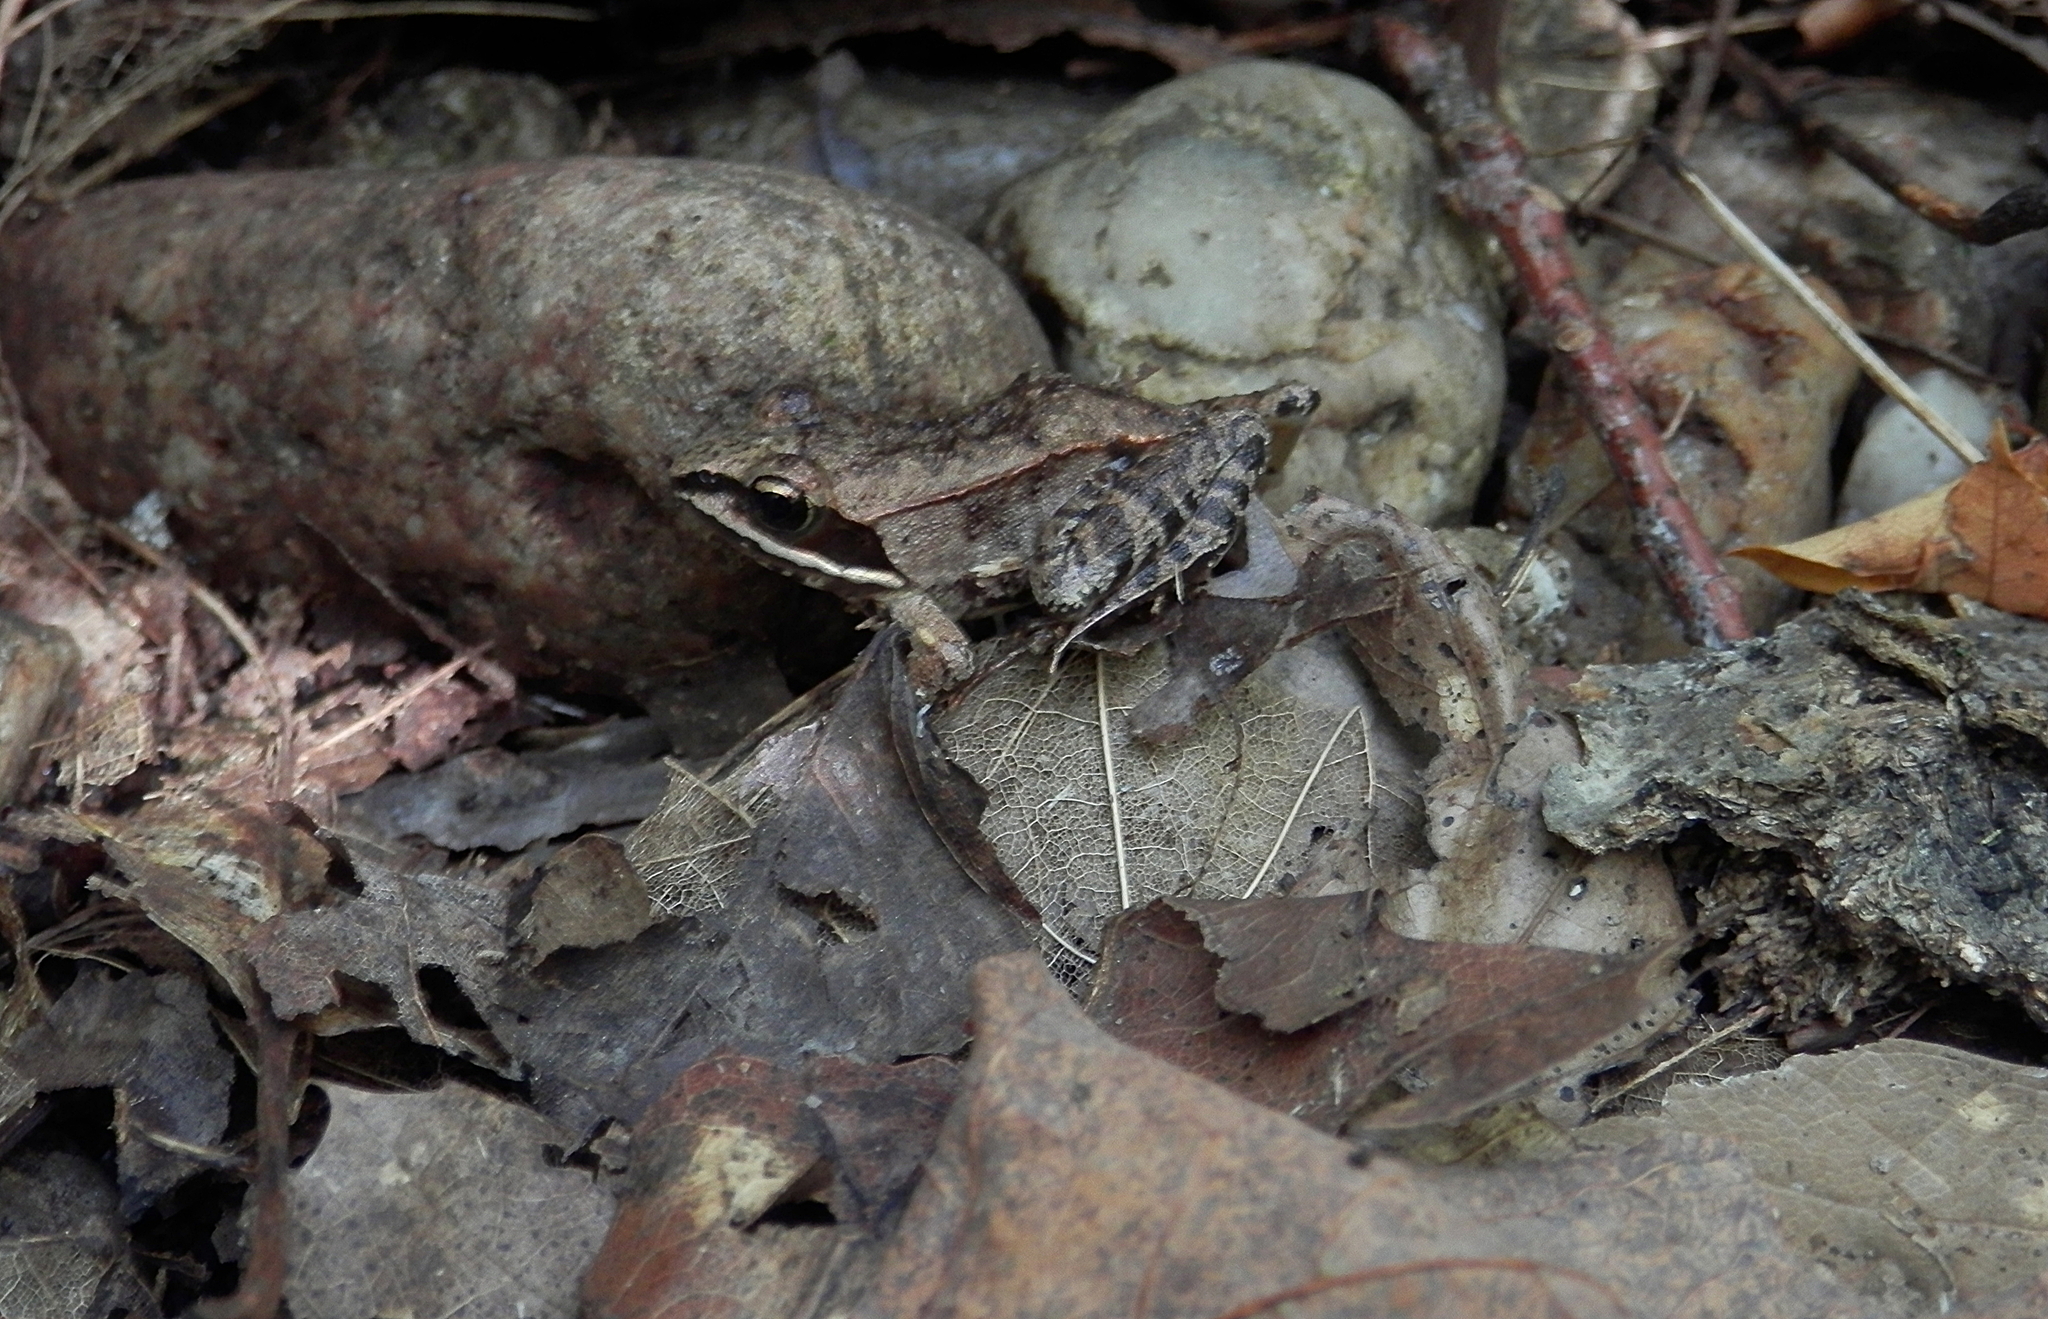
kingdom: Animalia
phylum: Chordata
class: Amphibia
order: Anura
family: Ranidae
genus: Lithobates
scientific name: Lithobates sylvaticus
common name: Wood frog
